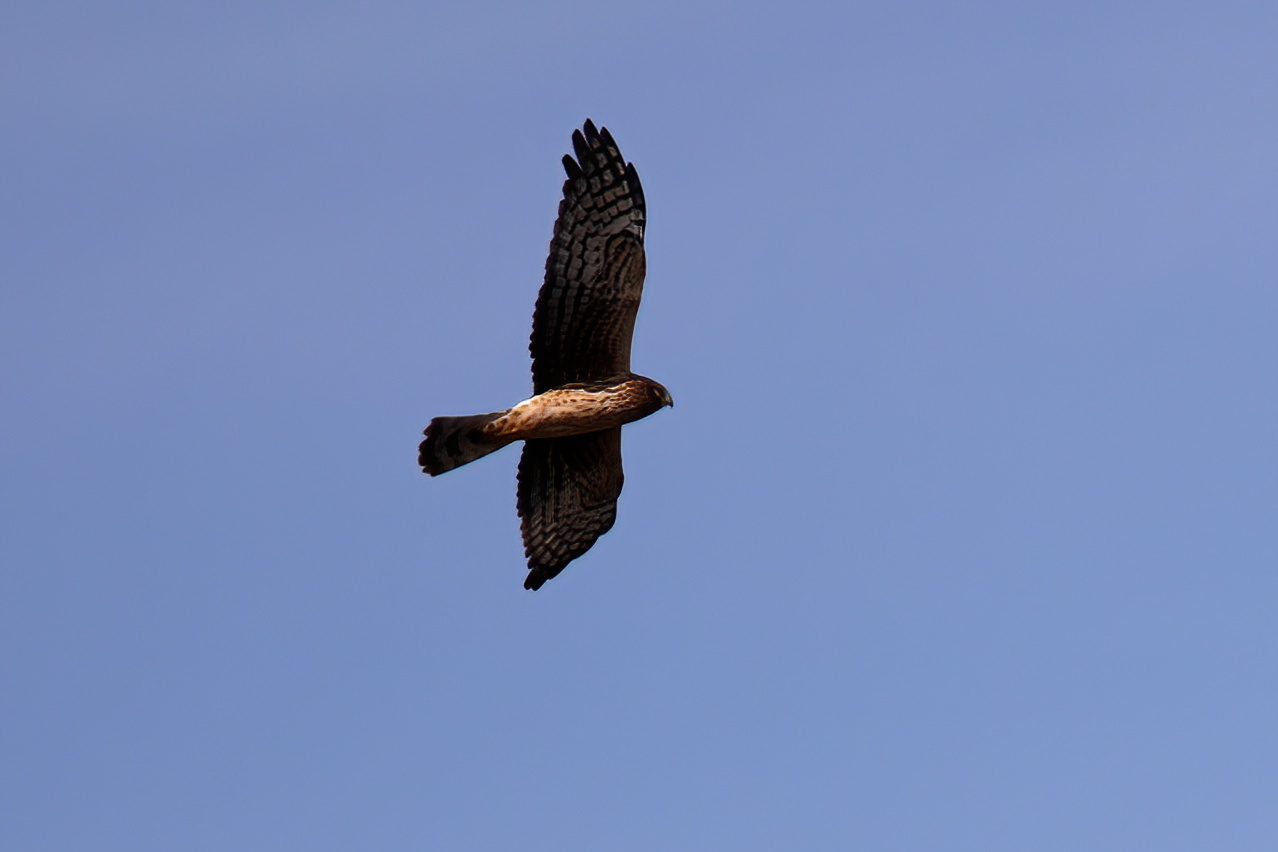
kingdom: Animalia
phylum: Chordata
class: Aves
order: Accipitriformes
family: Accipitridae
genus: Circus
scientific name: Circus cyaneus
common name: Hen harrier
